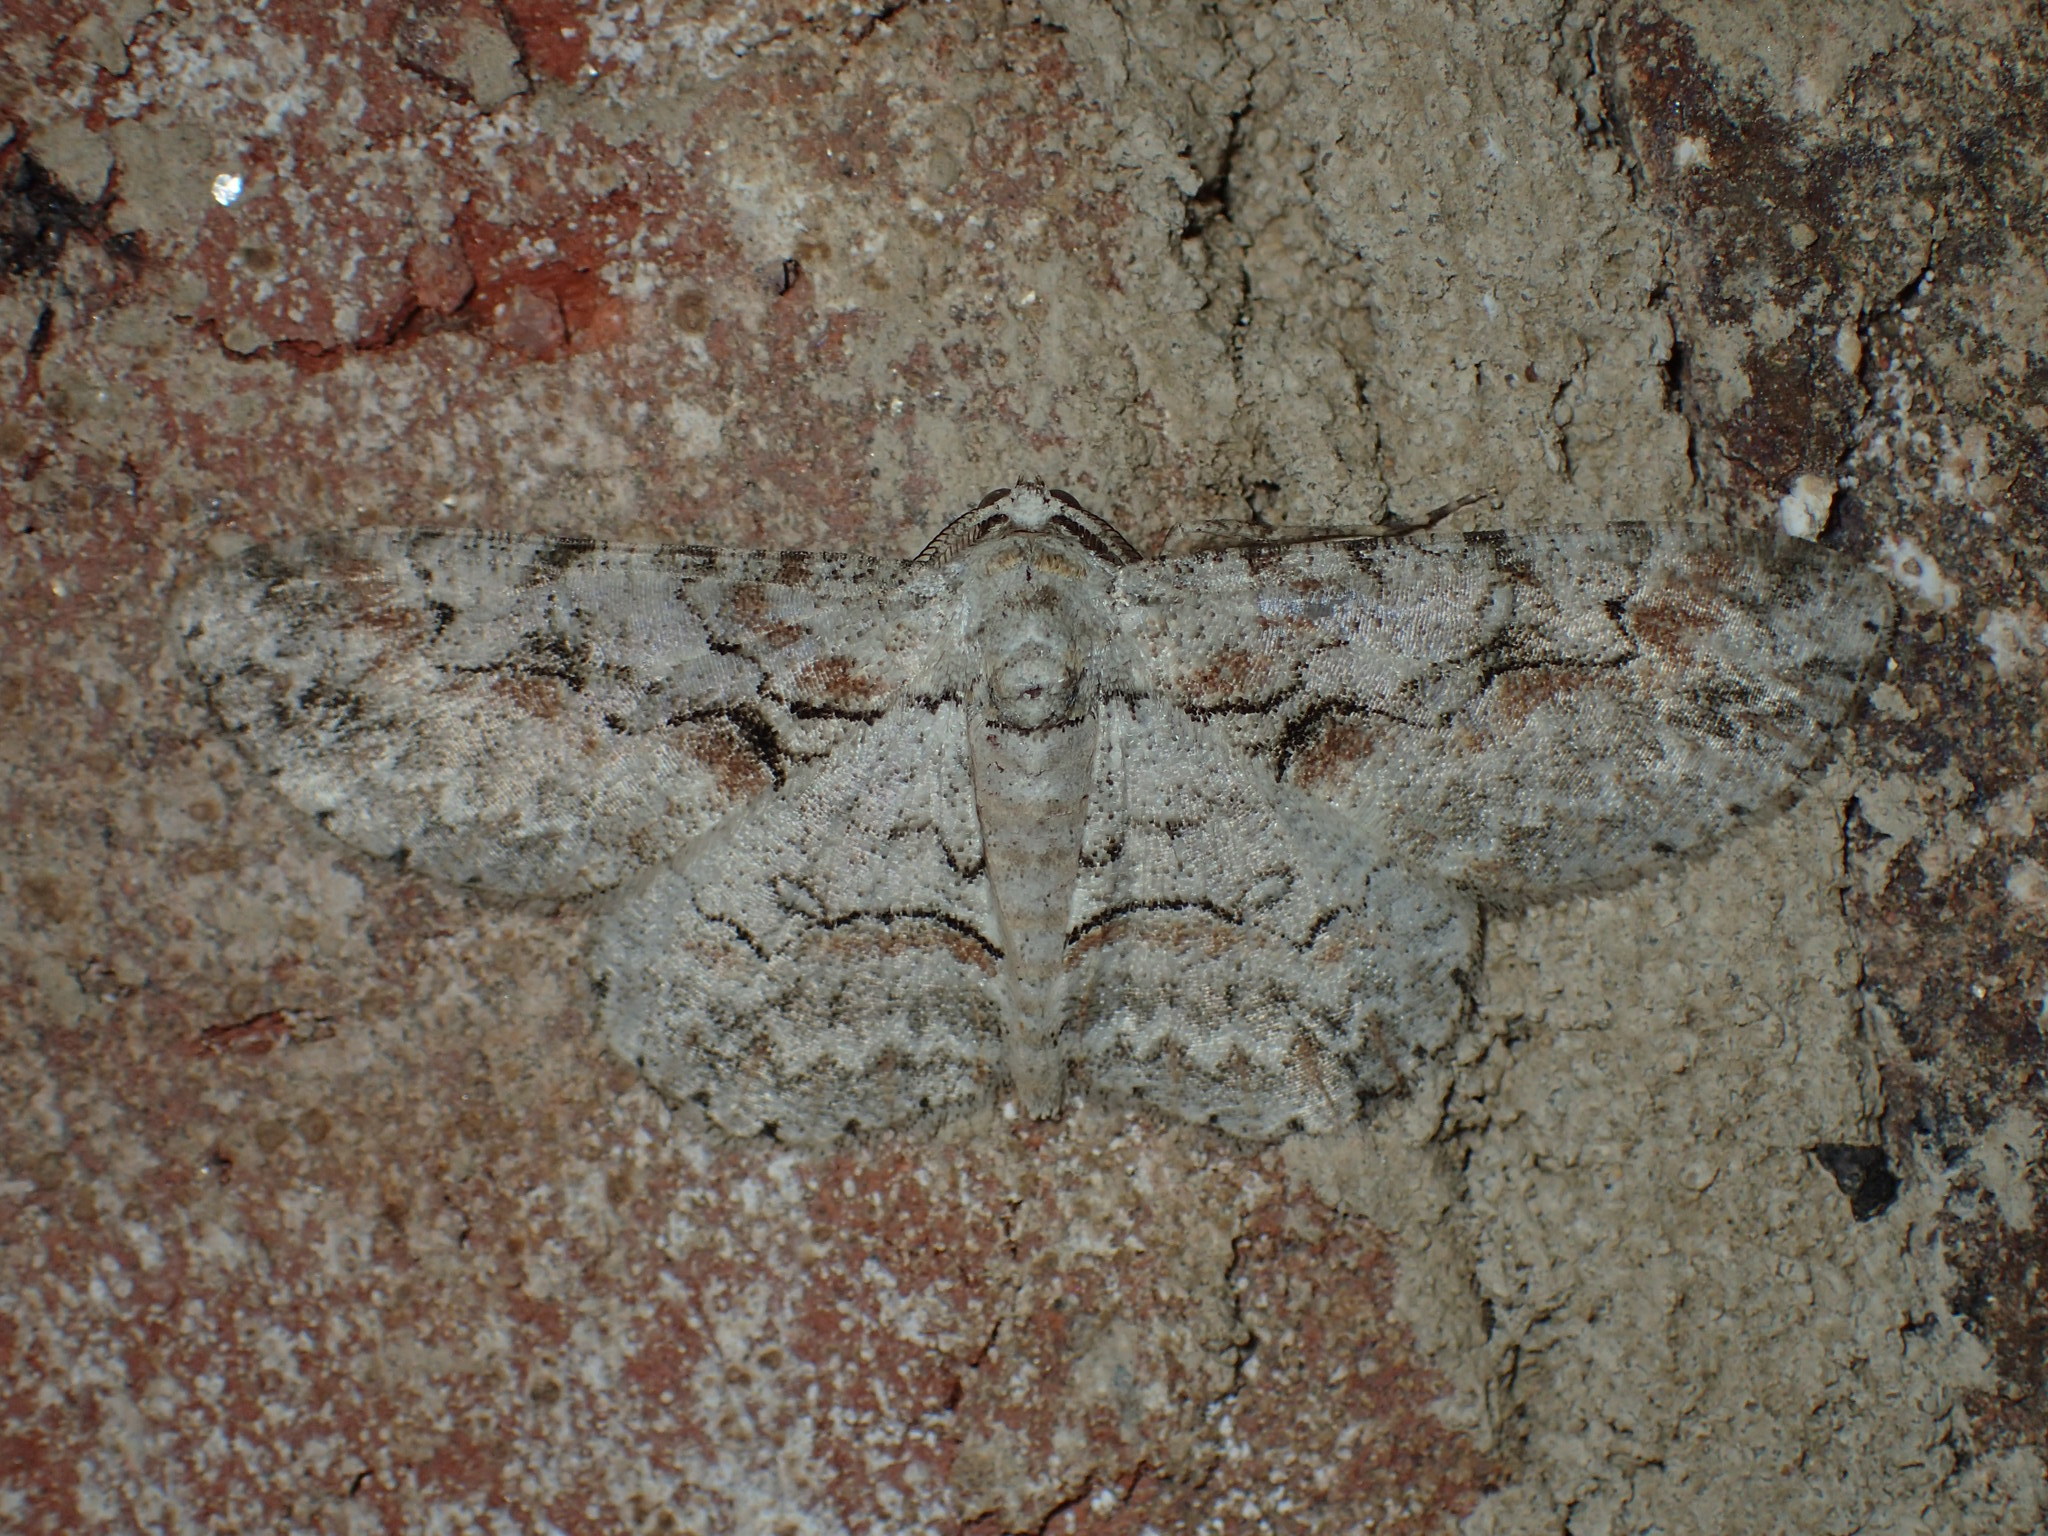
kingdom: Animalia
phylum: Arthropoda
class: Insecta
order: Lepidoptera
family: Geometridae
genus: Iridopsis
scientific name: Iridopsis defectaria
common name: Brown-shaded gray
